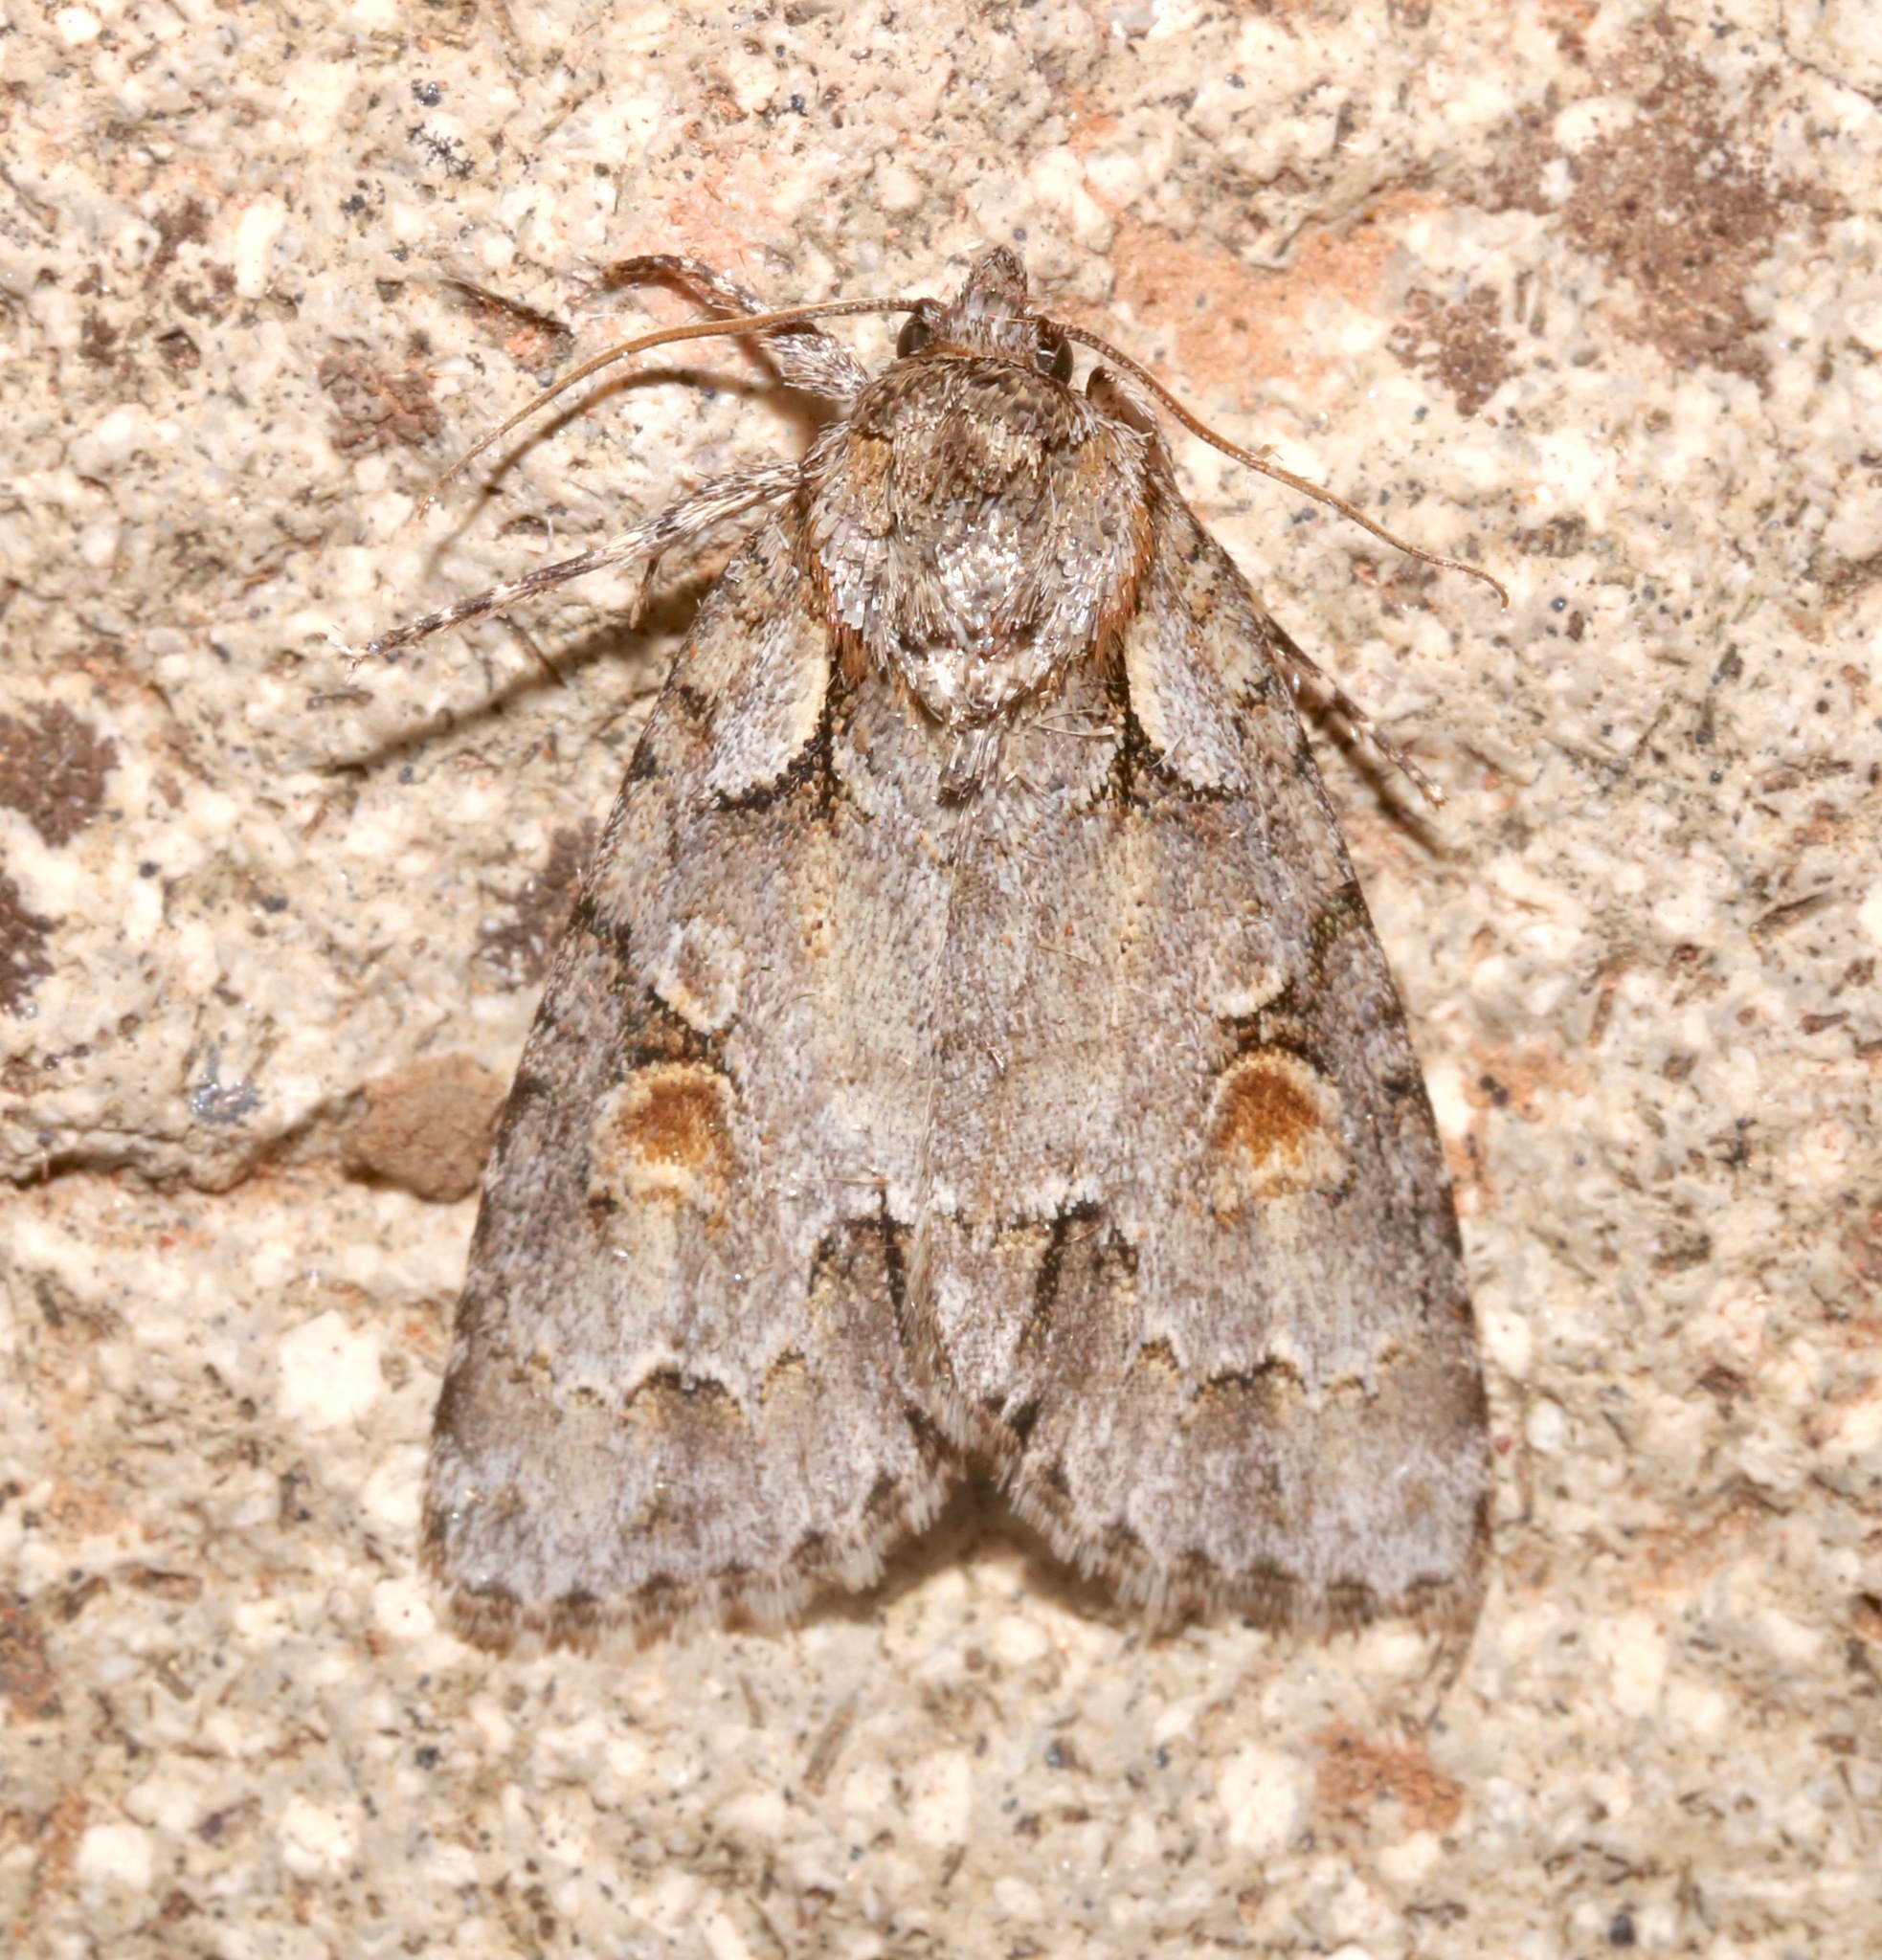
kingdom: Animalia
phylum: Arthropoda
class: Insecta
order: Lepidoptera
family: Noctuidae
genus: Acronicta
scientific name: Acronicta albarufa
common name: Barrens dagger moth
